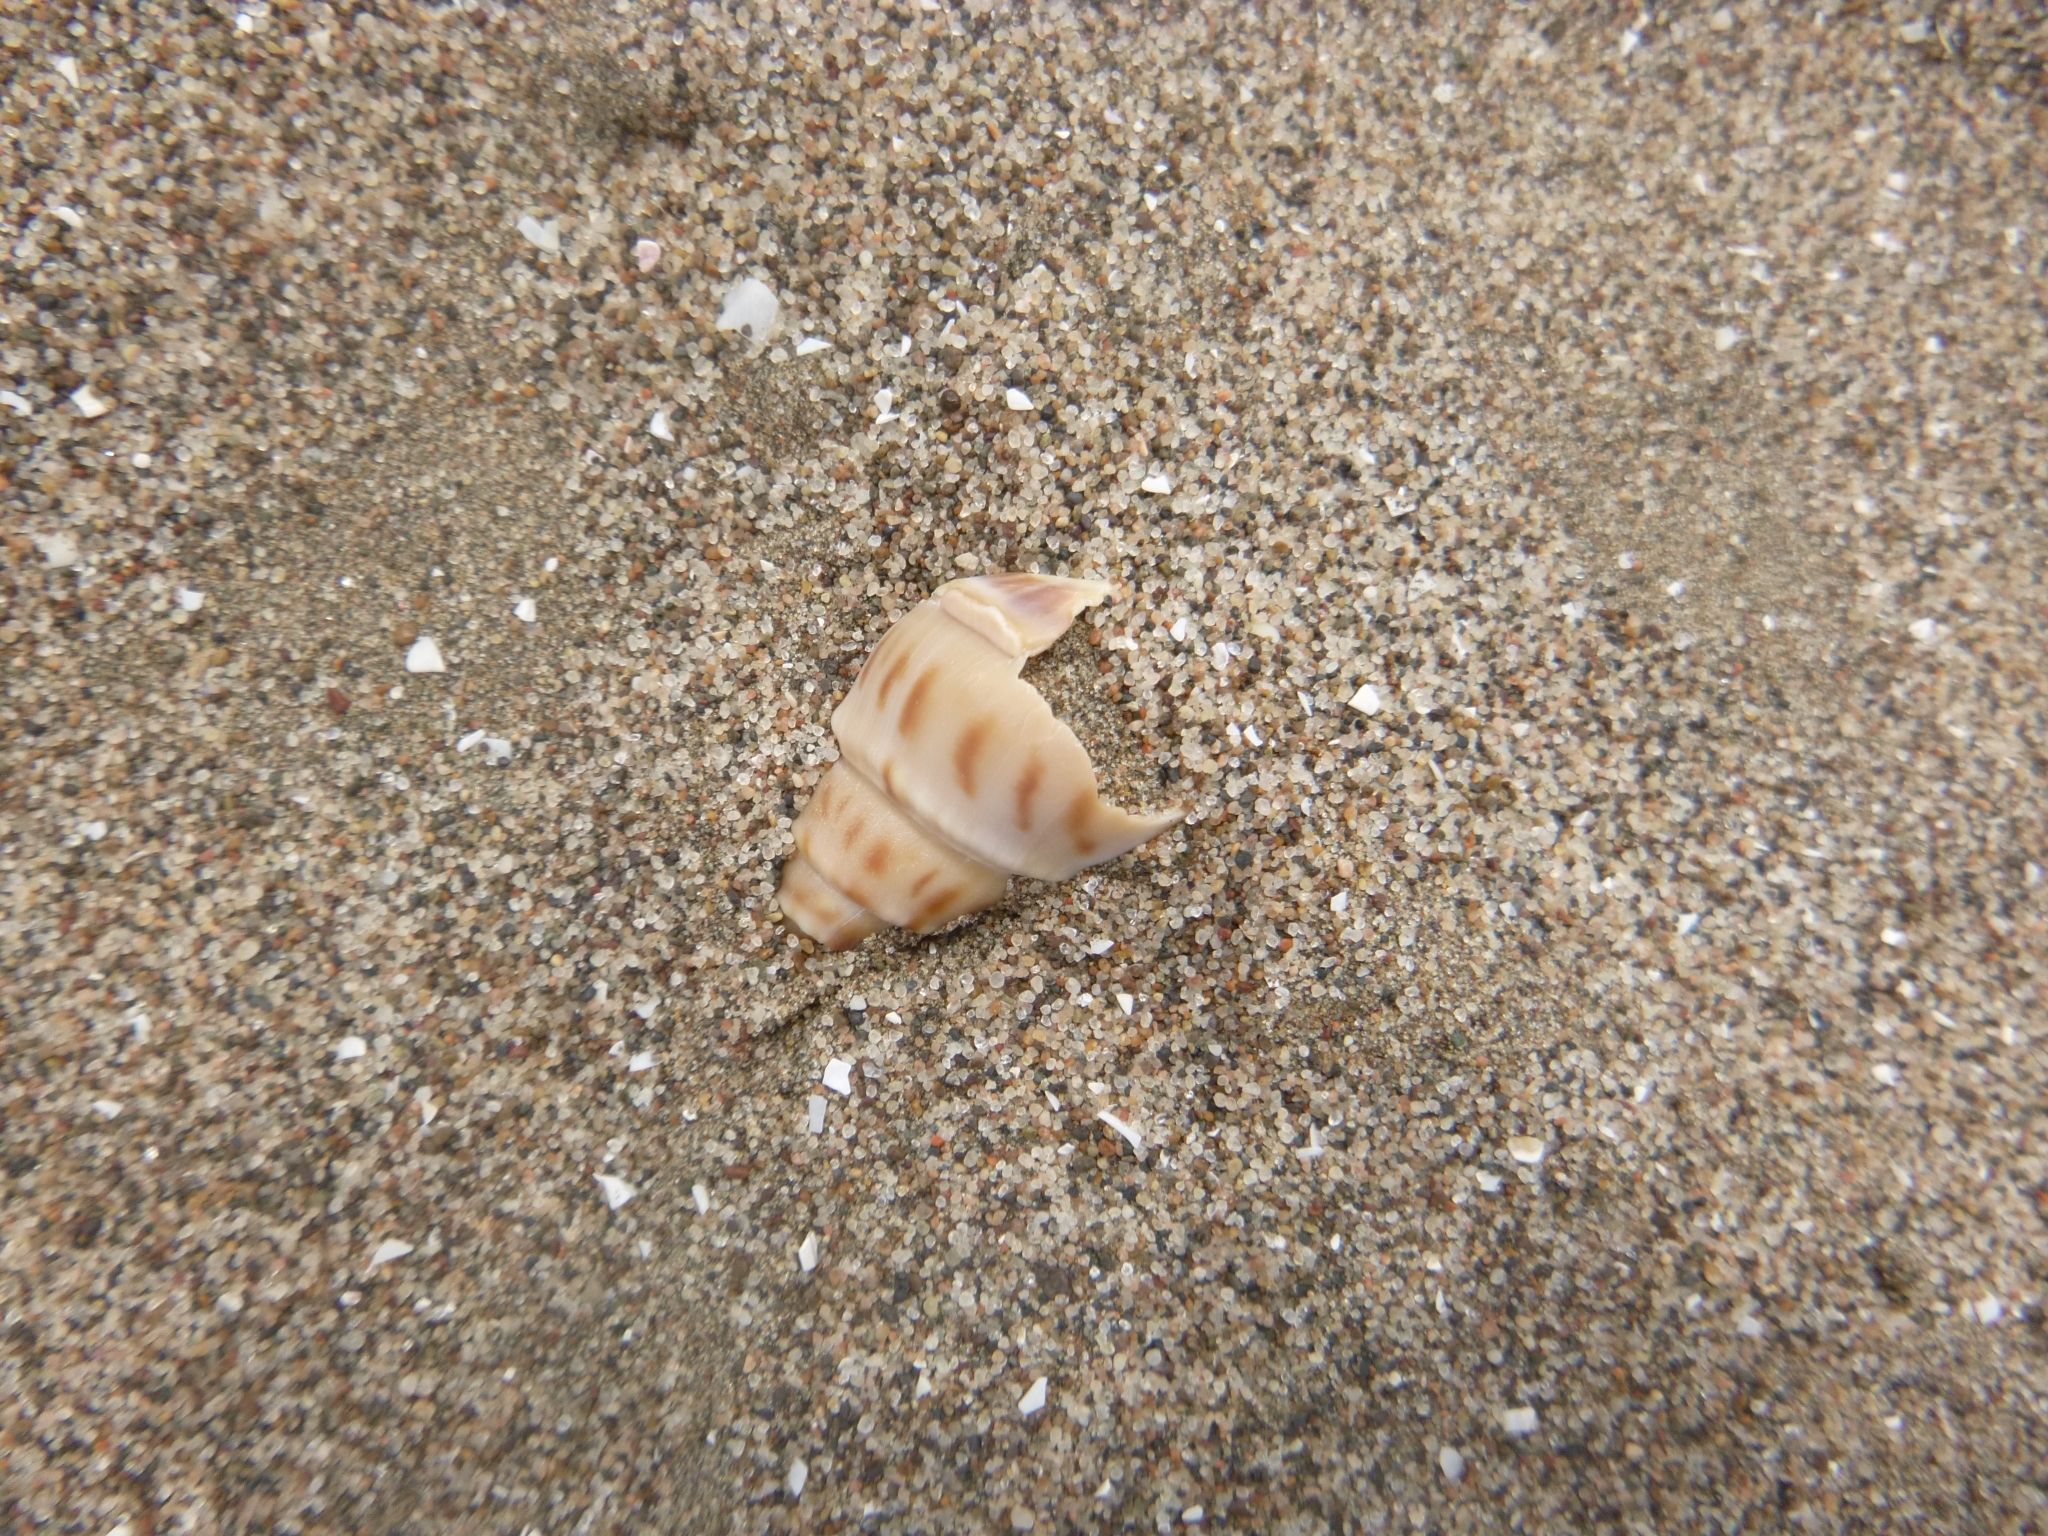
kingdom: Animalia
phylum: Mollusca
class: Gastropoda
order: Neogastropoda
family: Buccinanopsidae
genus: Buccinanops
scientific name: Buccinanops cochlidium
